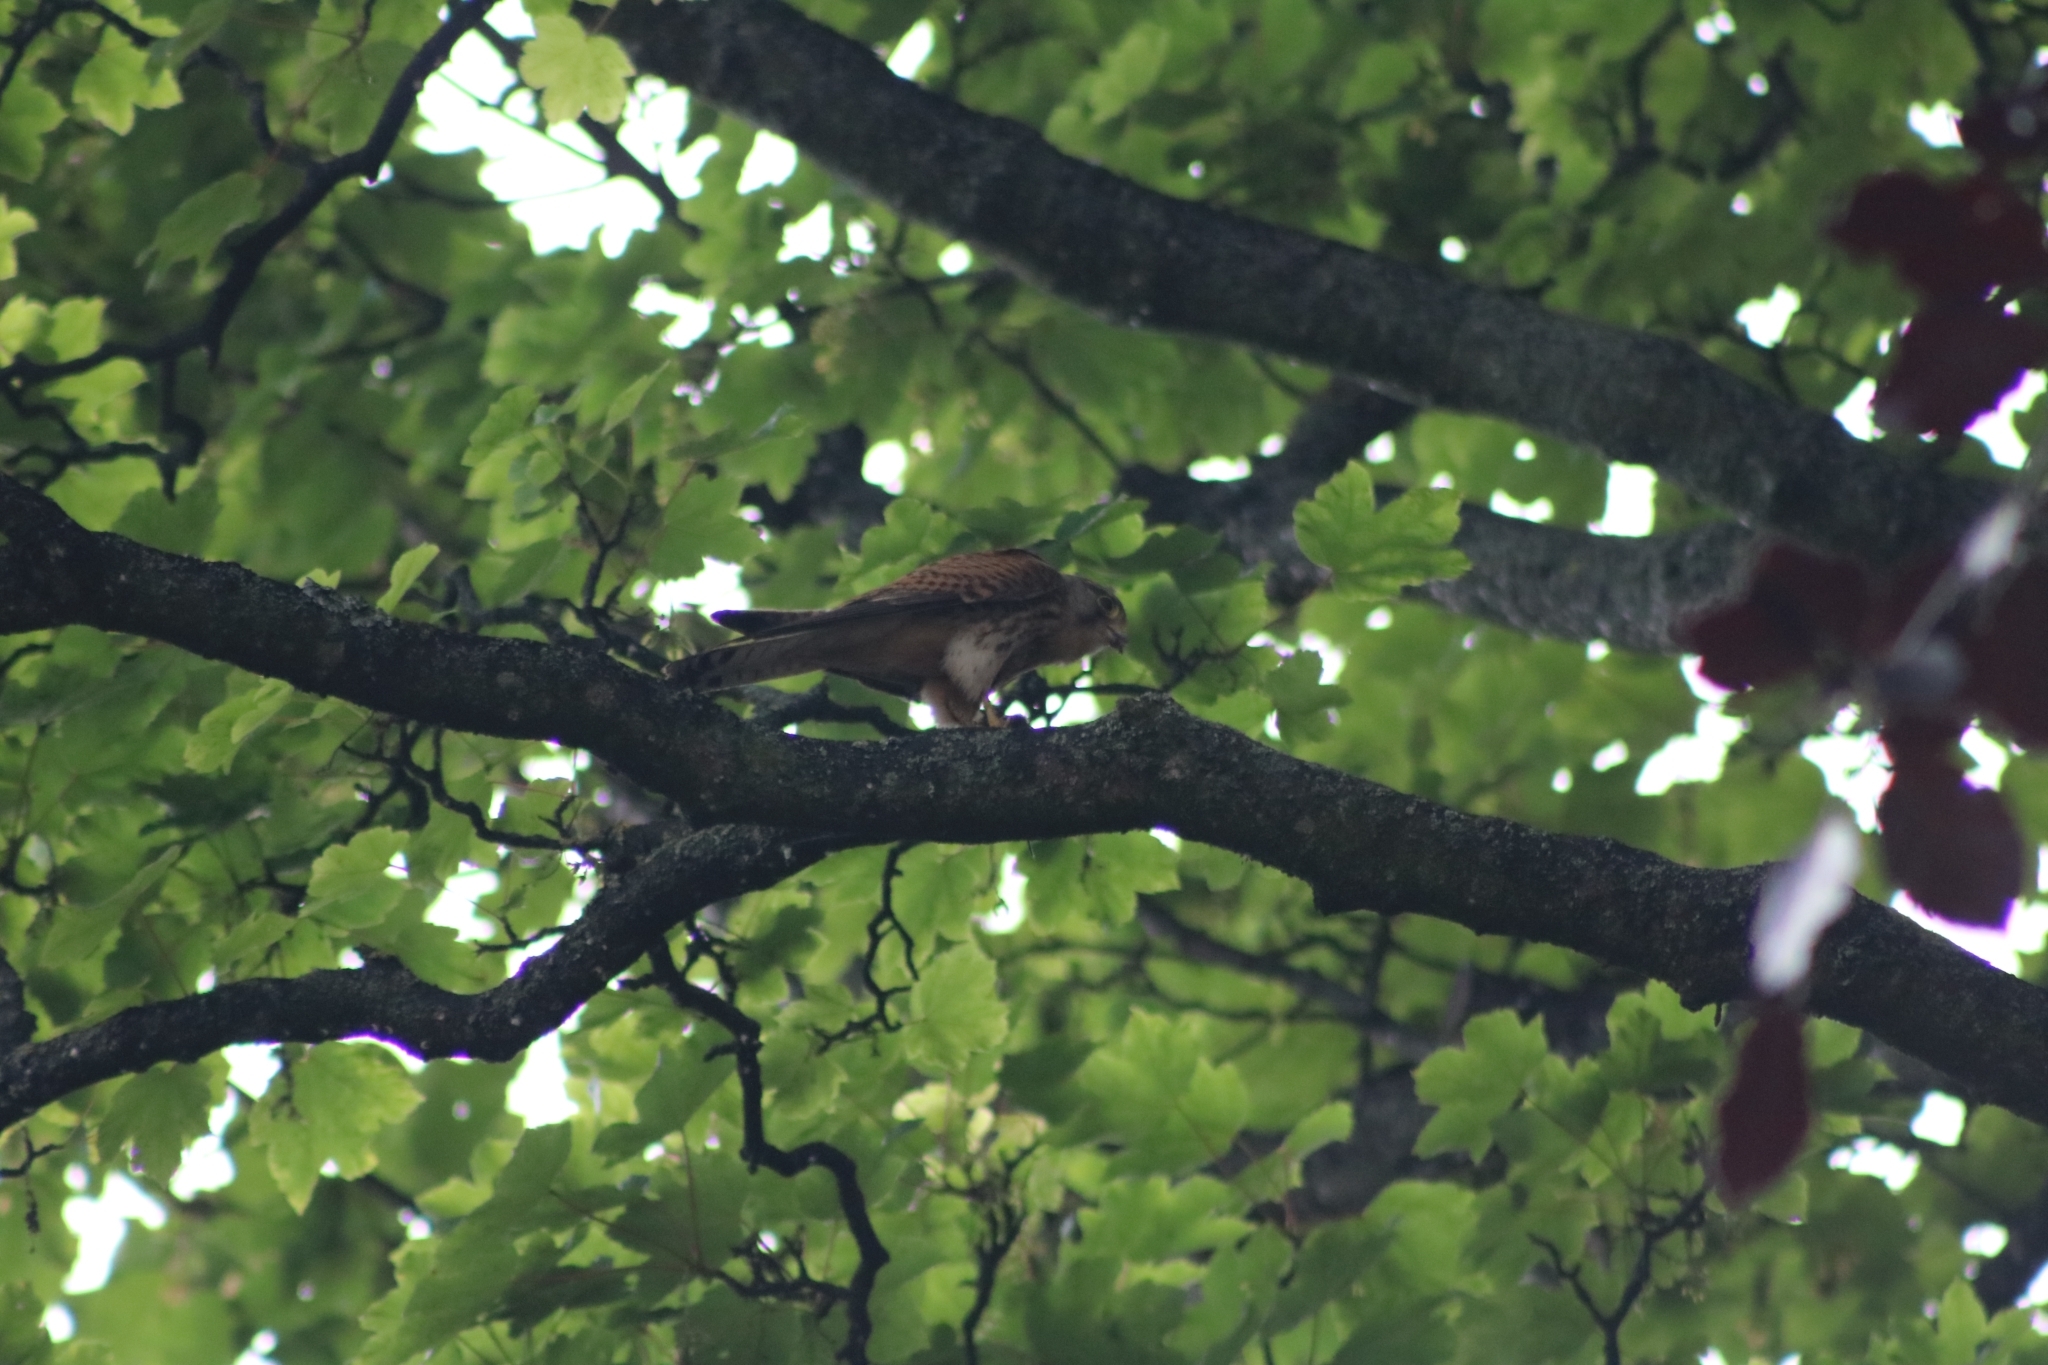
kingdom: Animalia
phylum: Chordata
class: Aves
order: Falconiformes
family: Falconidae
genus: Falco
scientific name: Falco tinnunculus
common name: Common kestrel
